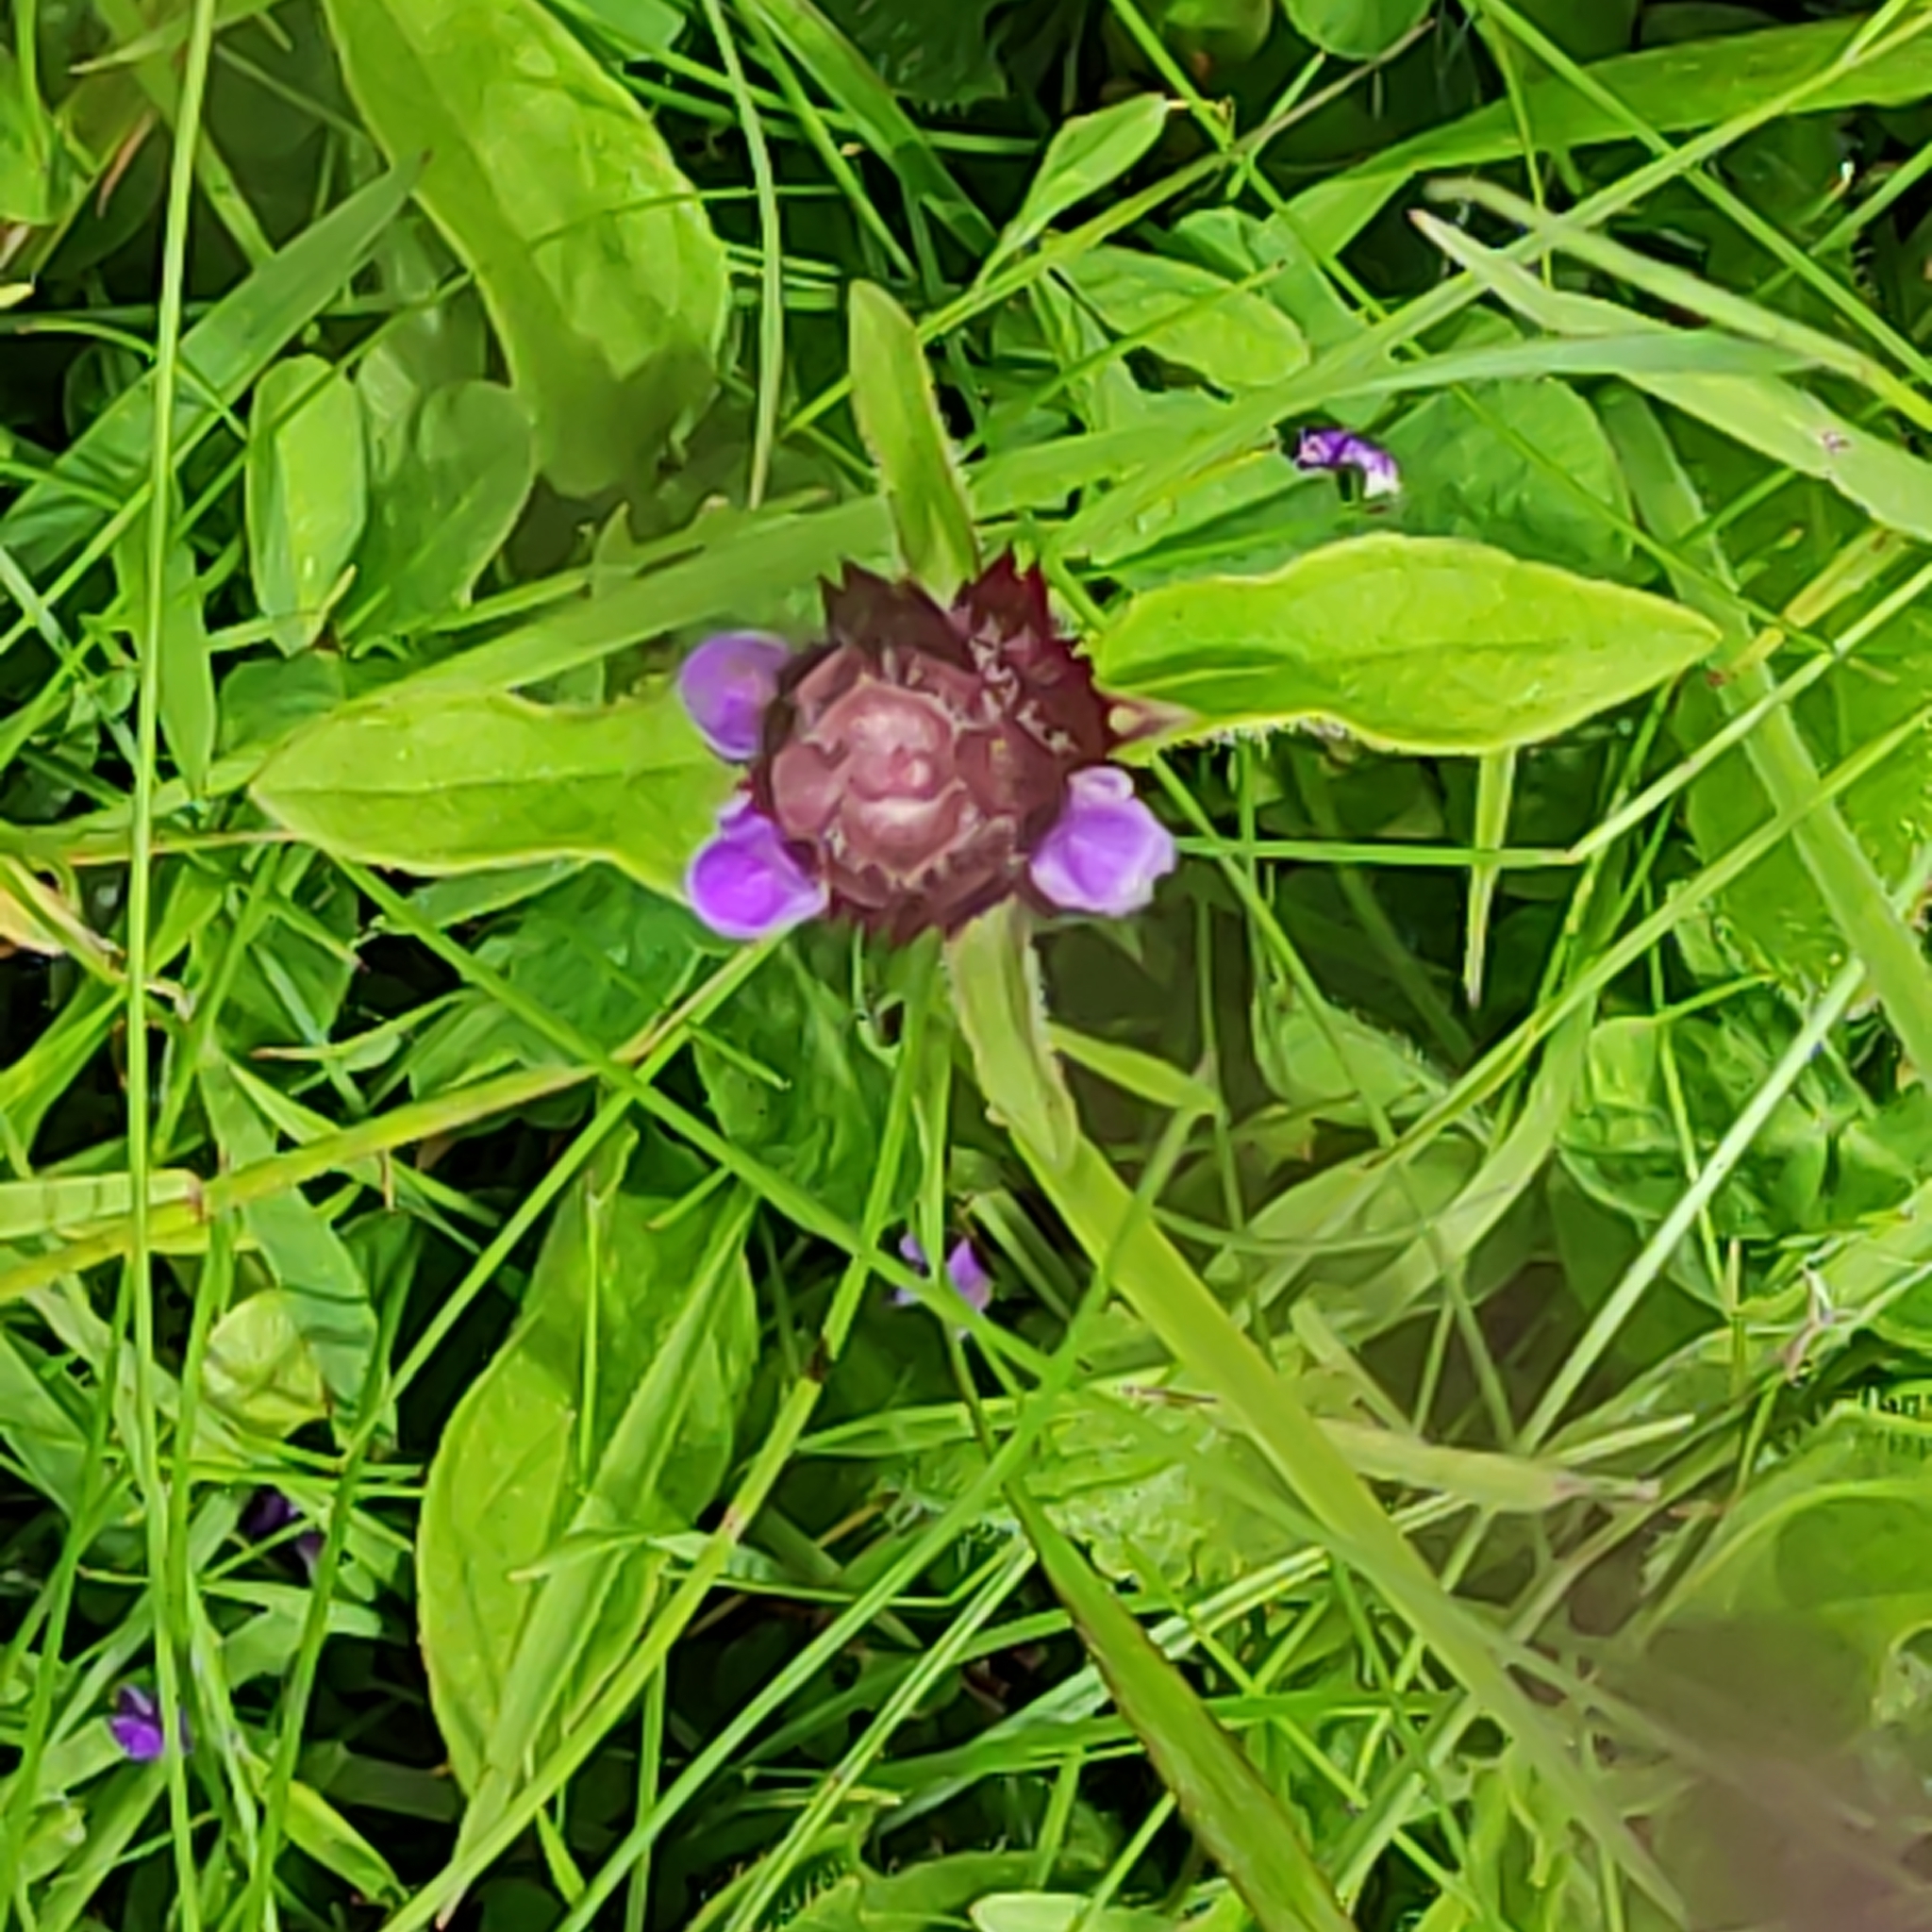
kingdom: Plantae
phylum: Tracheophyta
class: Magnoliopsida
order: Lamiales
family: Lamiaceae
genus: Prunella
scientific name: Prunella vulgaris
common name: Heal-all
